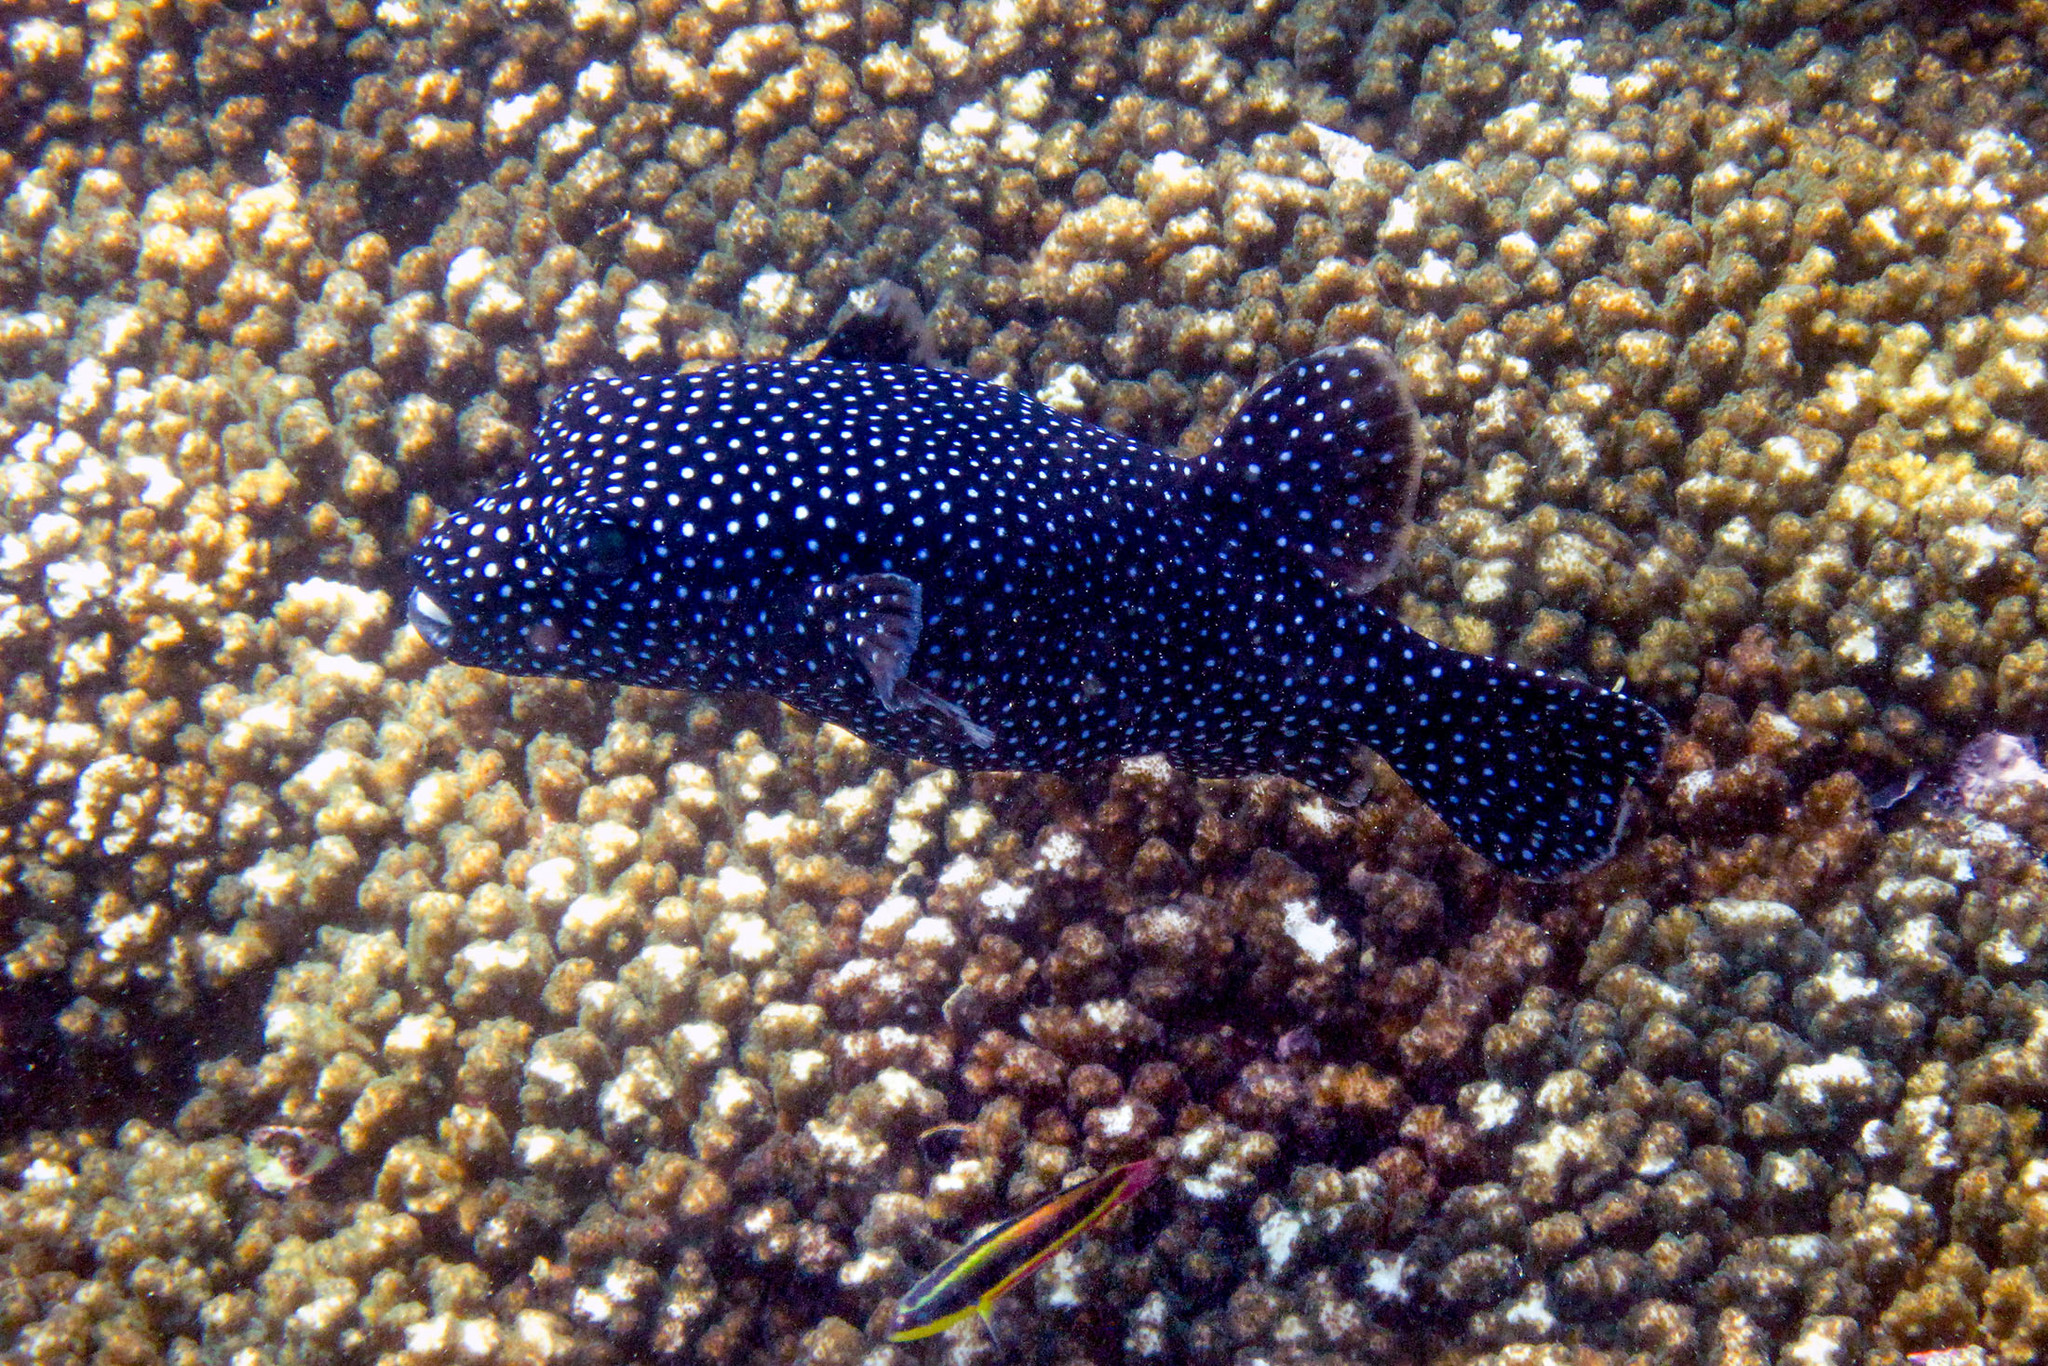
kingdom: Animalia
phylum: Chordata
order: Tetraodontiformes
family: Tetraodontidae
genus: Arothron
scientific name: Arothron meleagris
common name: Guinea-fowl pufferfish
